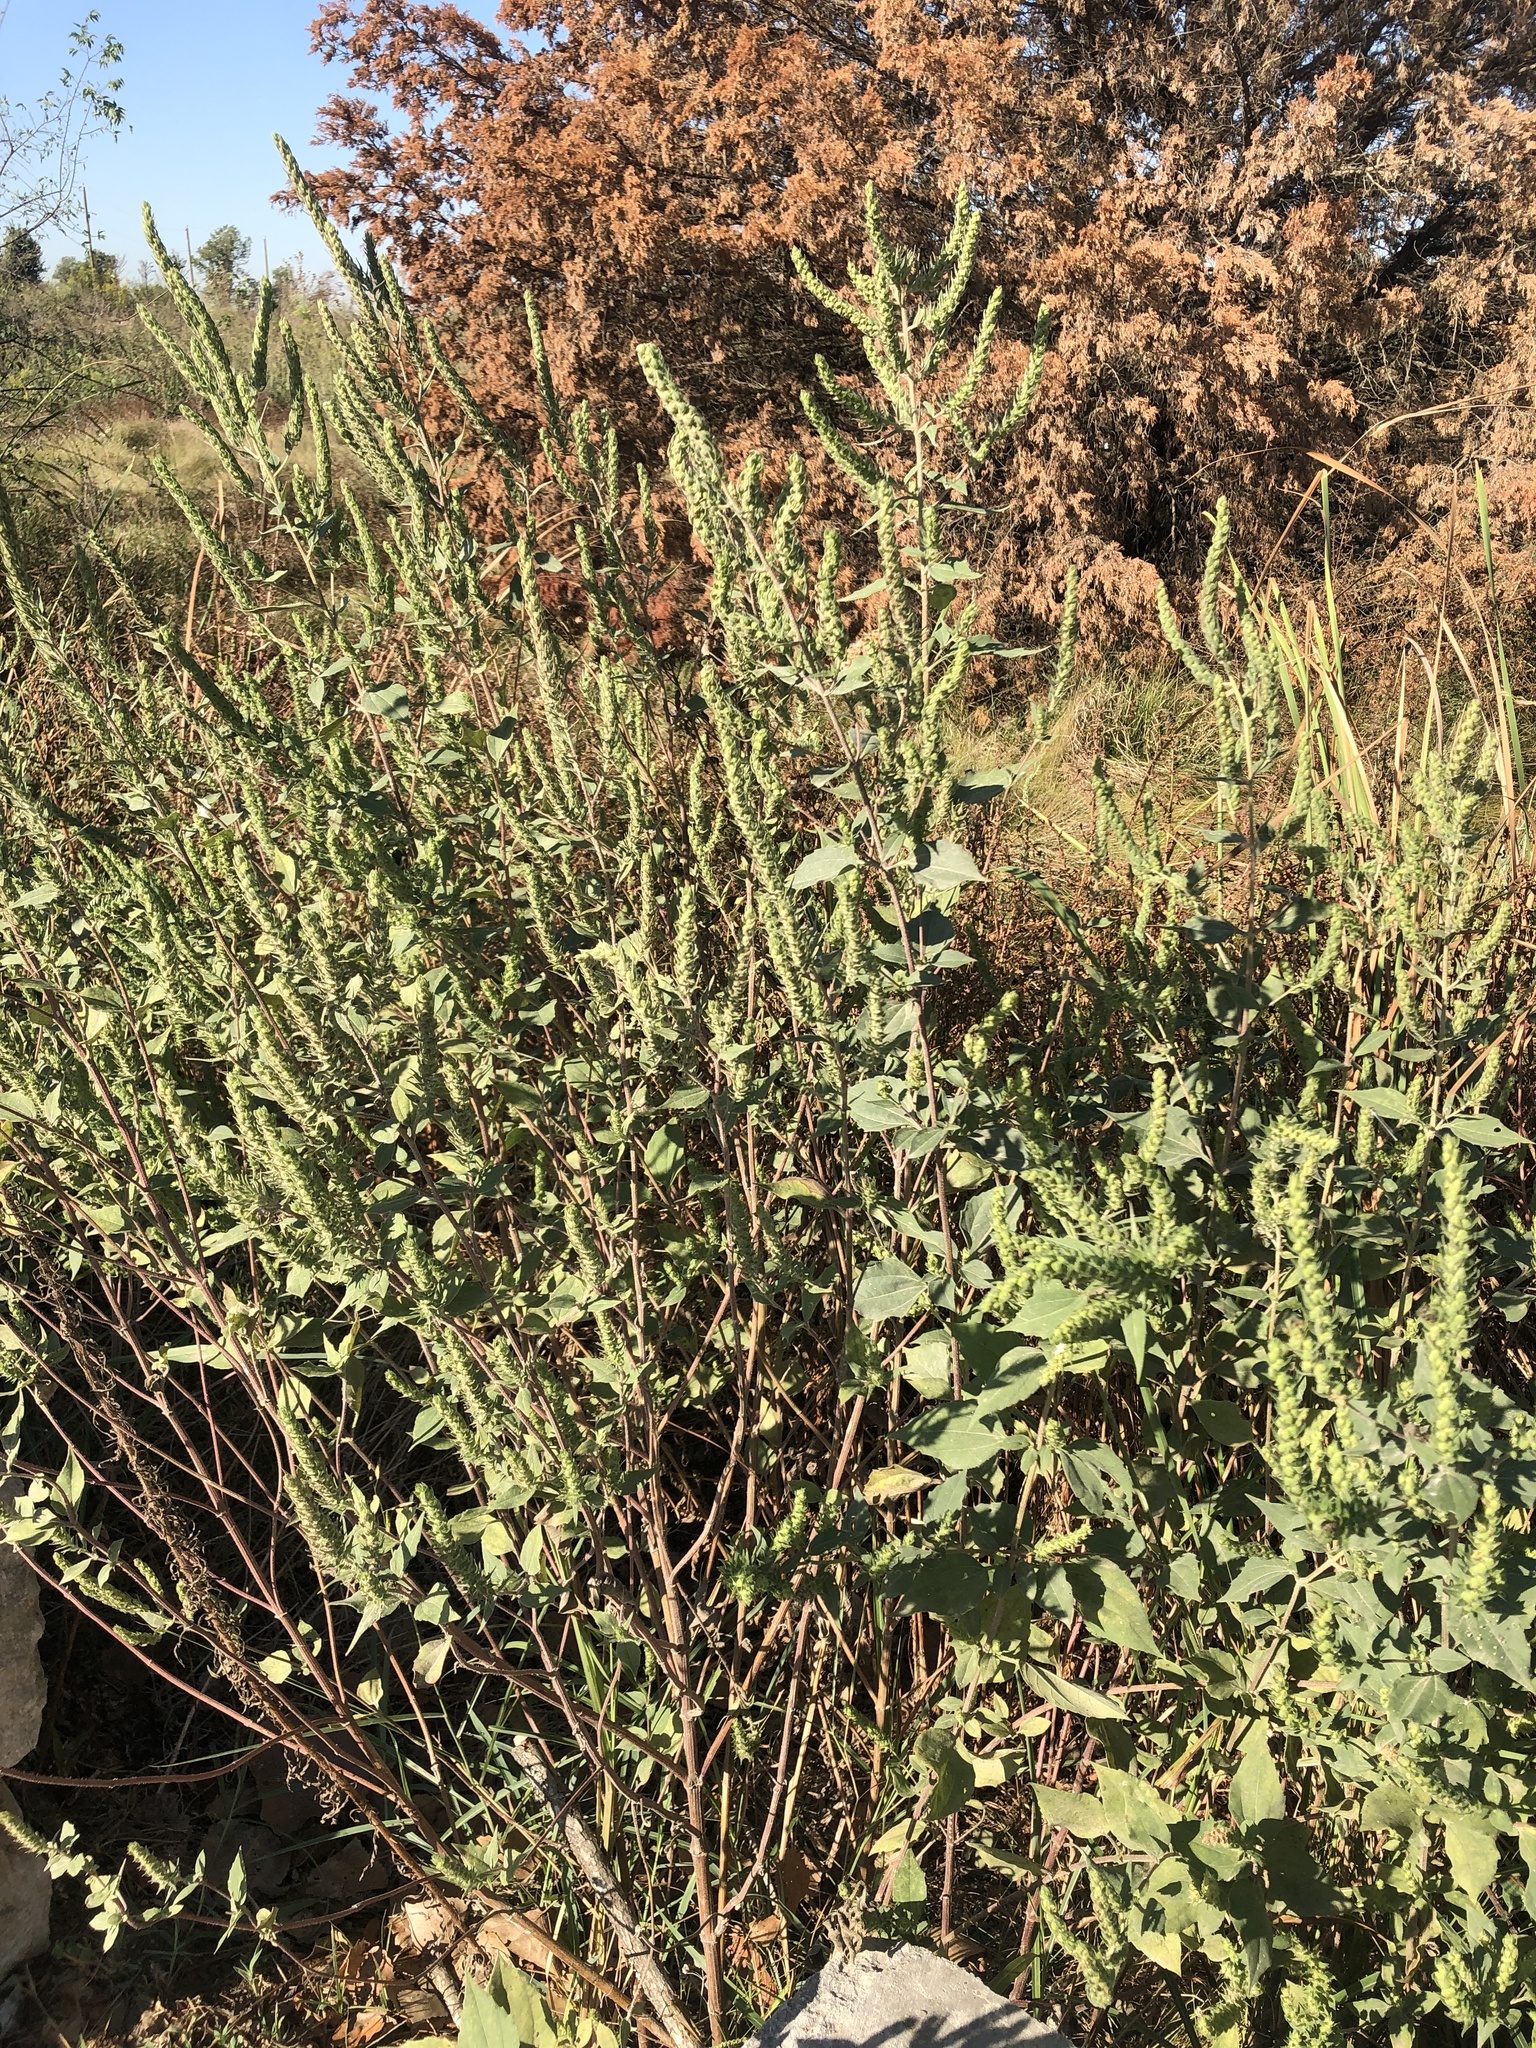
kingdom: Plantae
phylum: Tracheophyta
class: Magnoliopsida
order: Asterales
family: Asteraceae
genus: Iva
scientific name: Iva annua
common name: Marsh-elder
